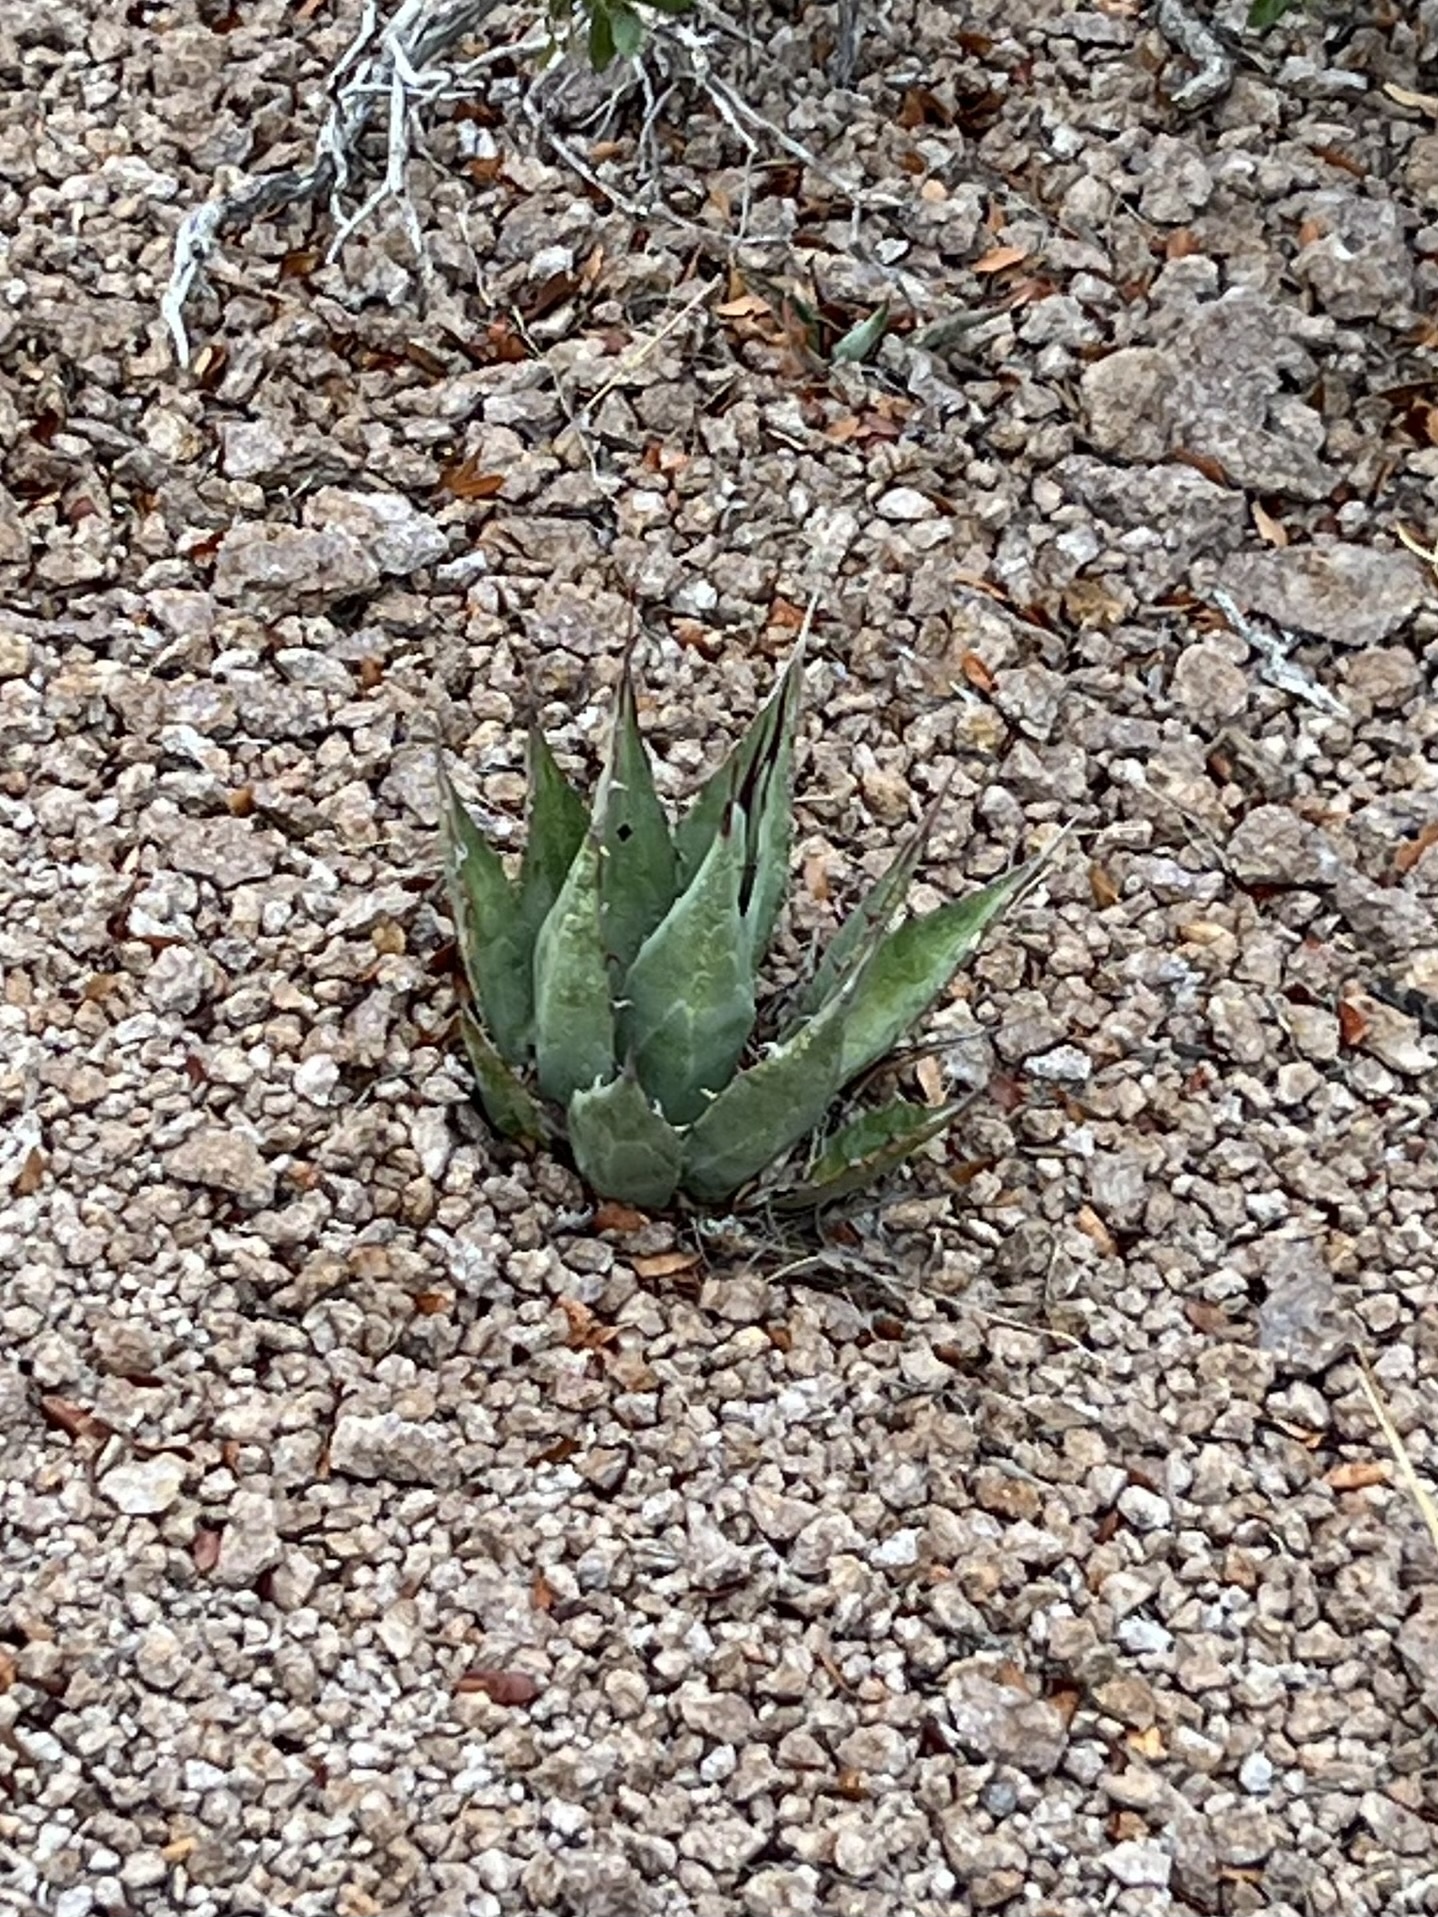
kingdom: Plantae
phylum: Tracheophyta
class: Liliopsida
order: Asparagales
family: Asparagaceae
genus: Agave
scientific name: Agave palmeri
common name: Palmer agave
